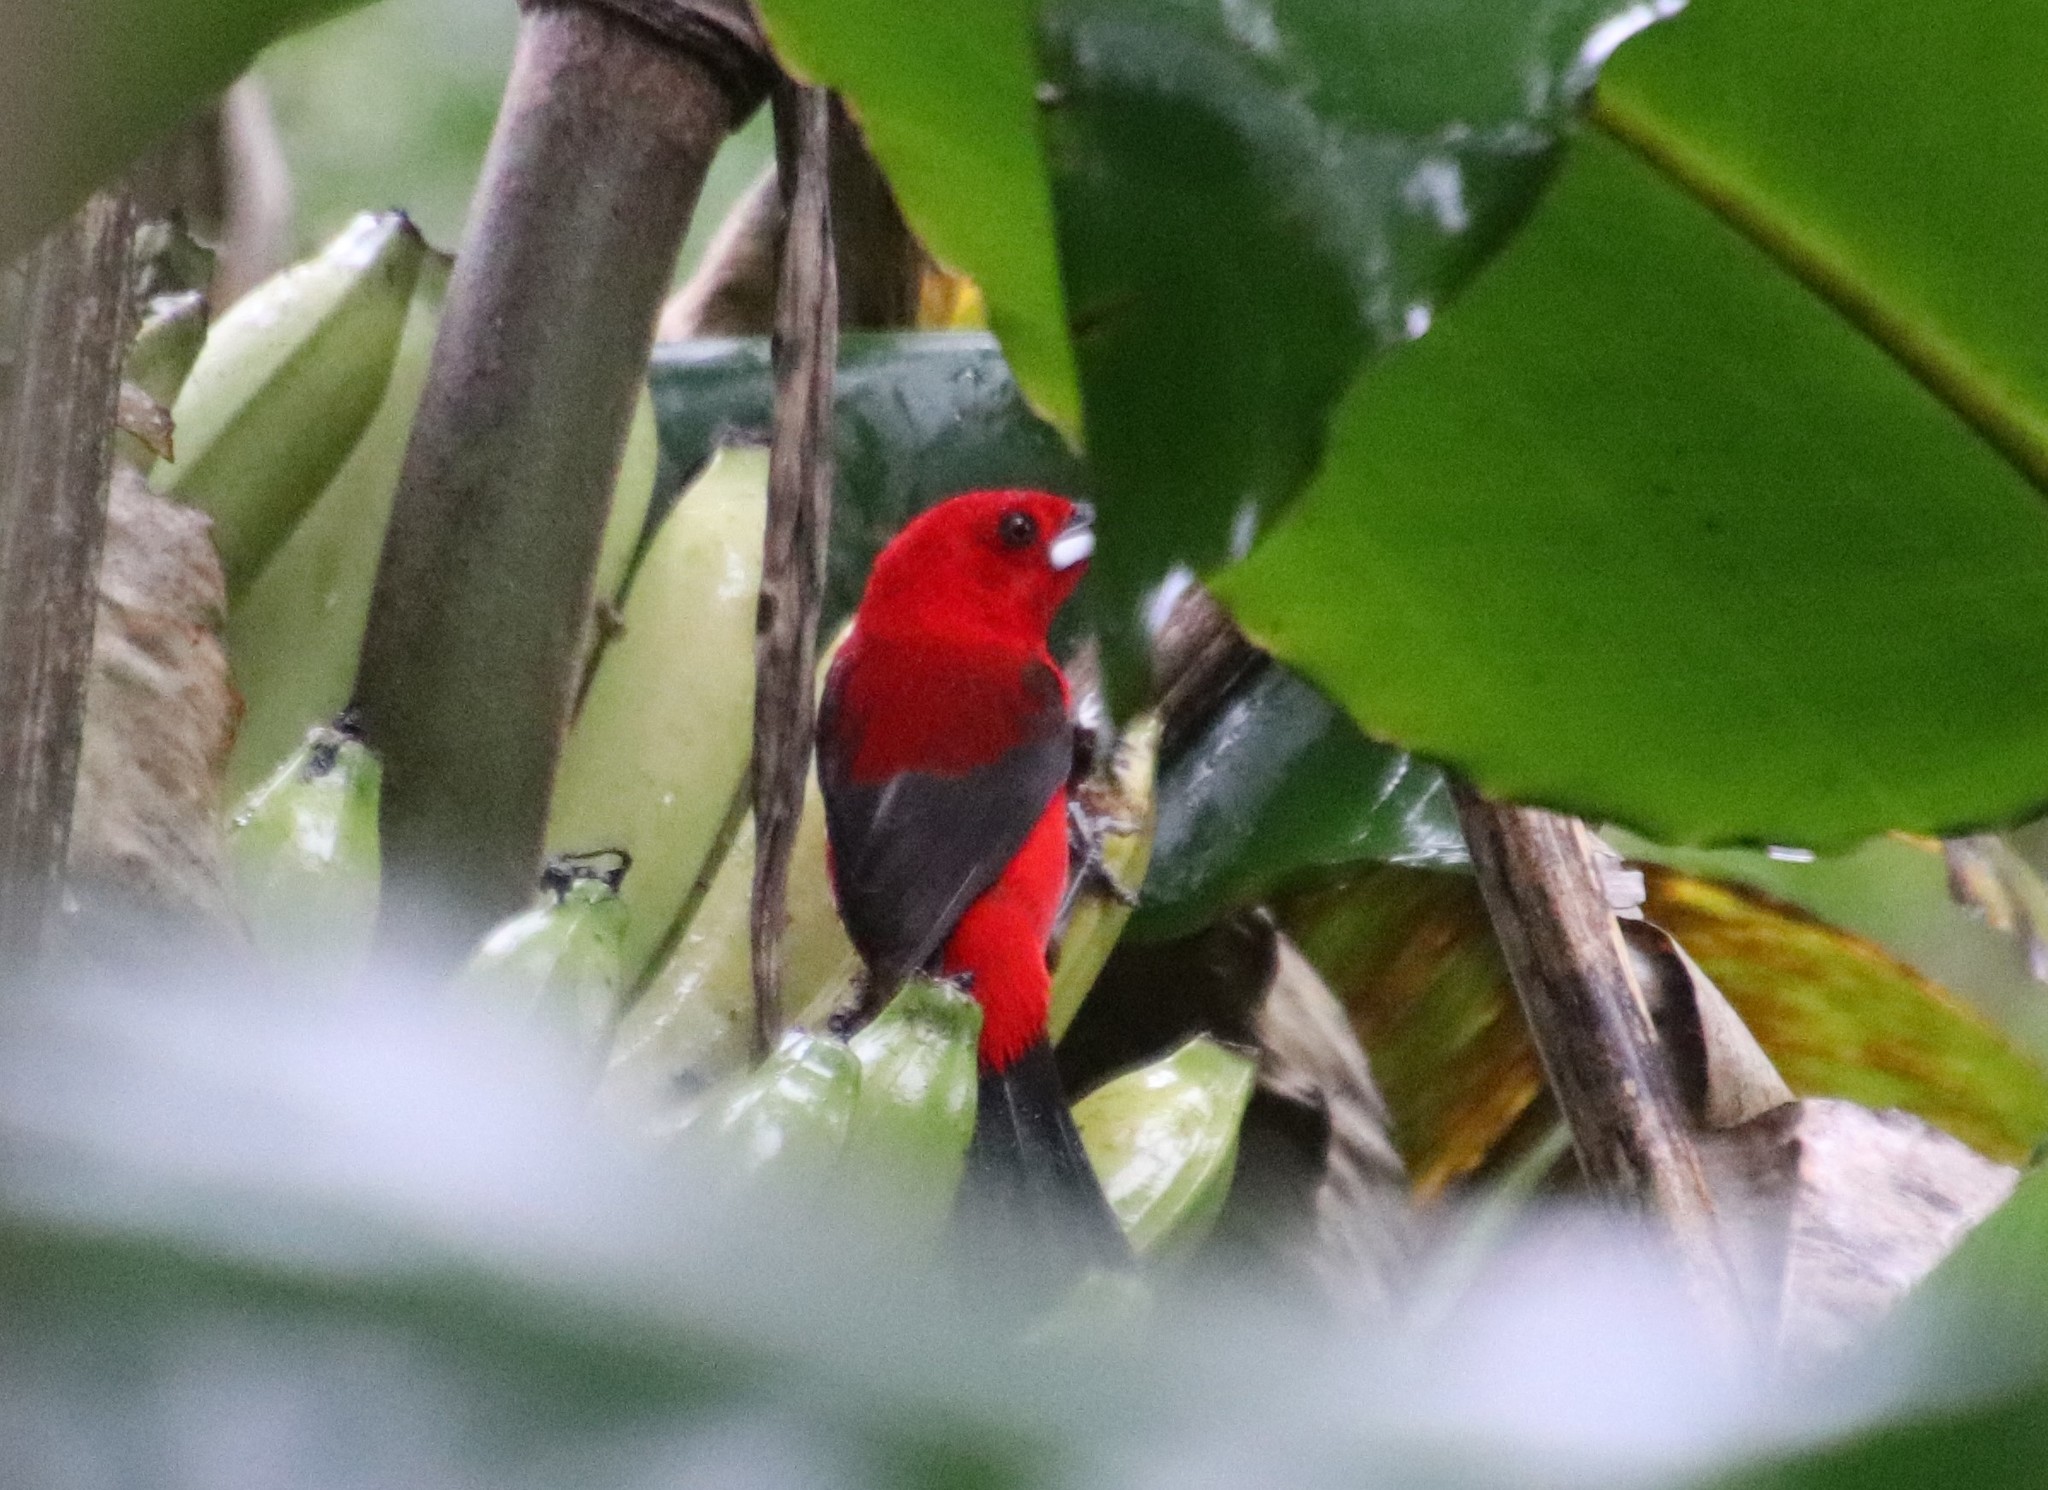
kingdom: Animalia
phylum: Chordata
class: Aves
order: Passeriformes
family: Thraupidae
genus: Ramphocelus
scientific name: Ramphocelus bresilia
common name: Brazilian tanager
